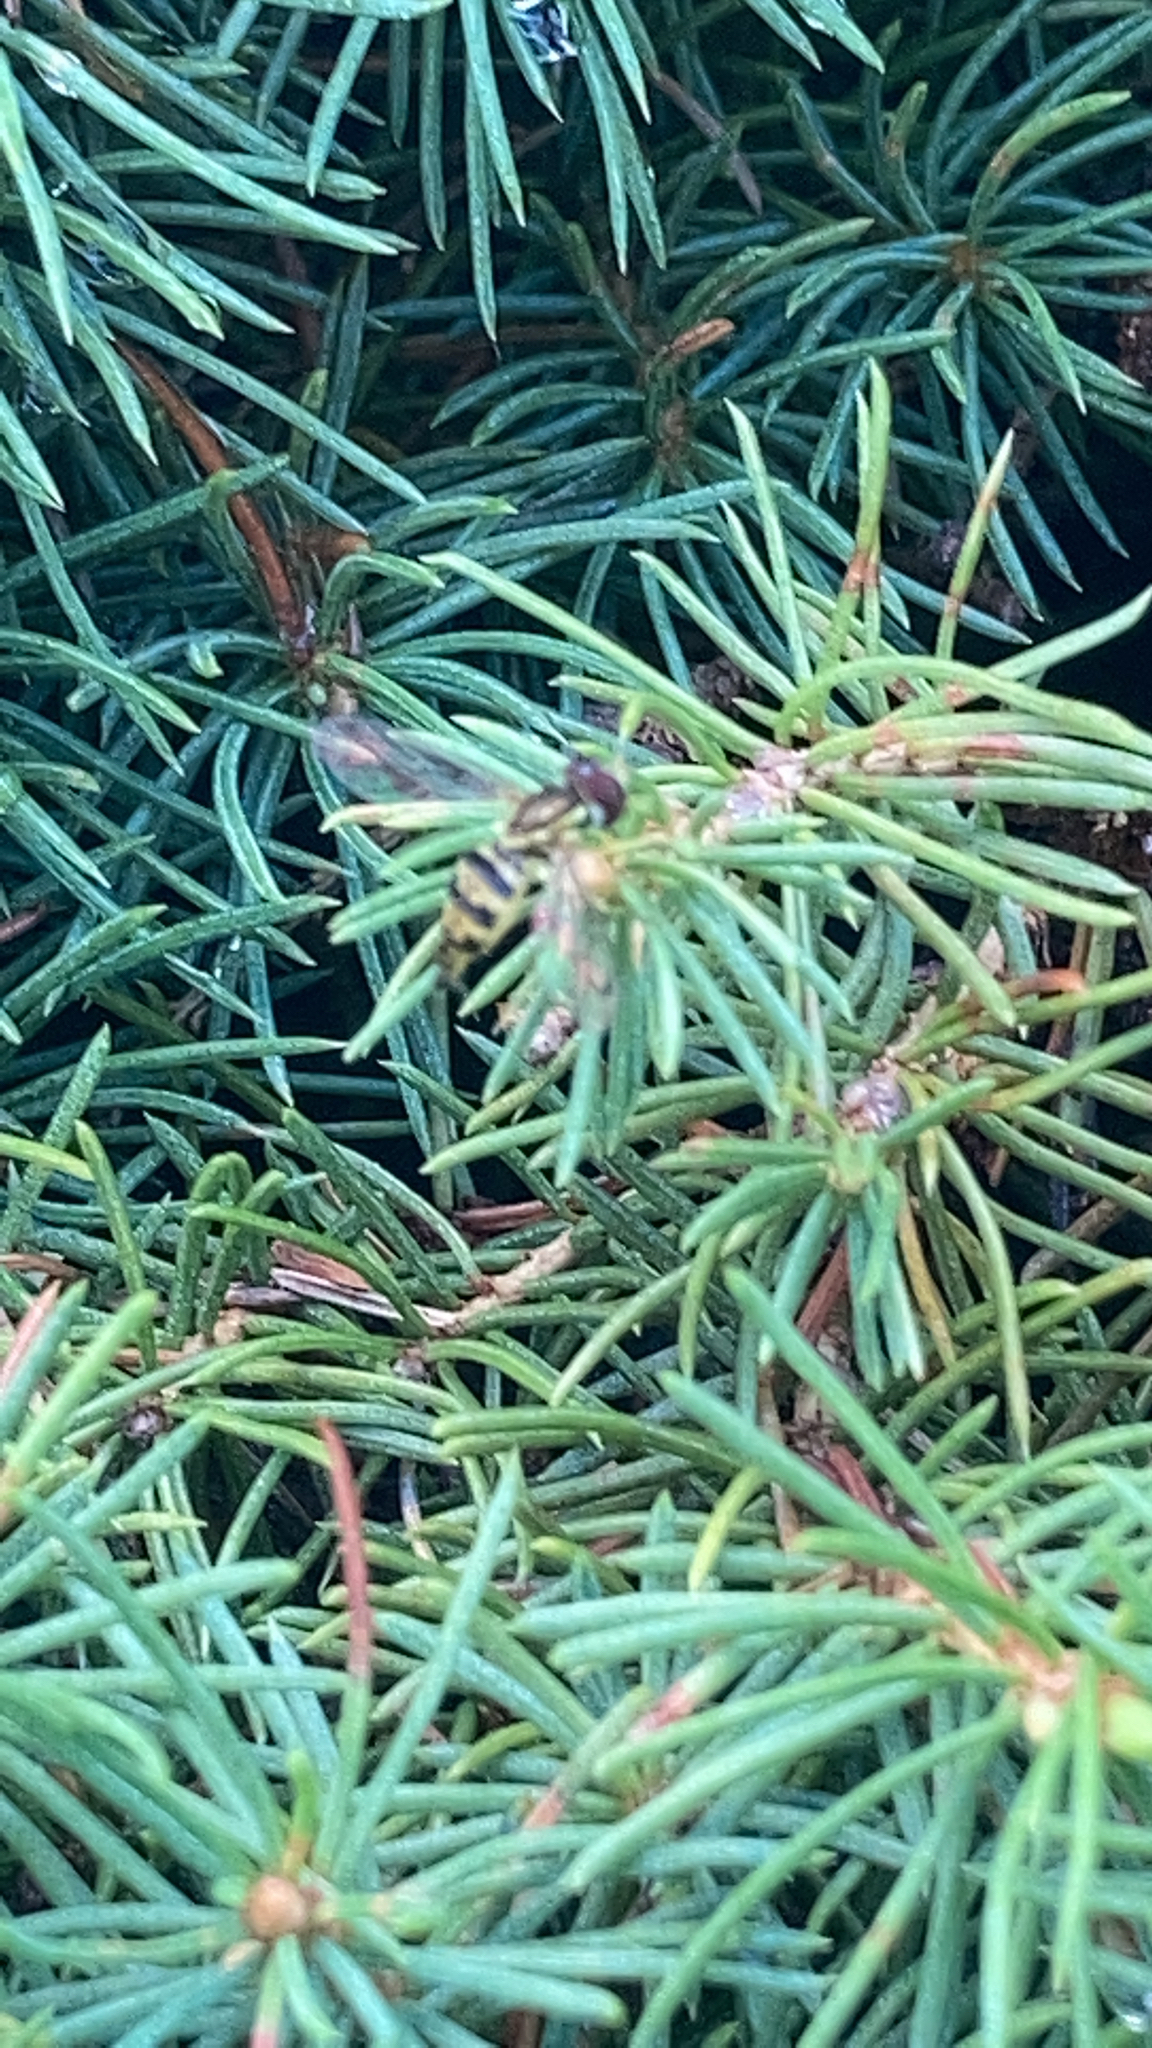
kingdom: Animalia
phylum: Arthropoda
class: Insecta
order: Diptera
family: Syrphidae
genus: Toxomerus
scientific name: Toxomerus geminatus
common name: Eastern calligrapher
